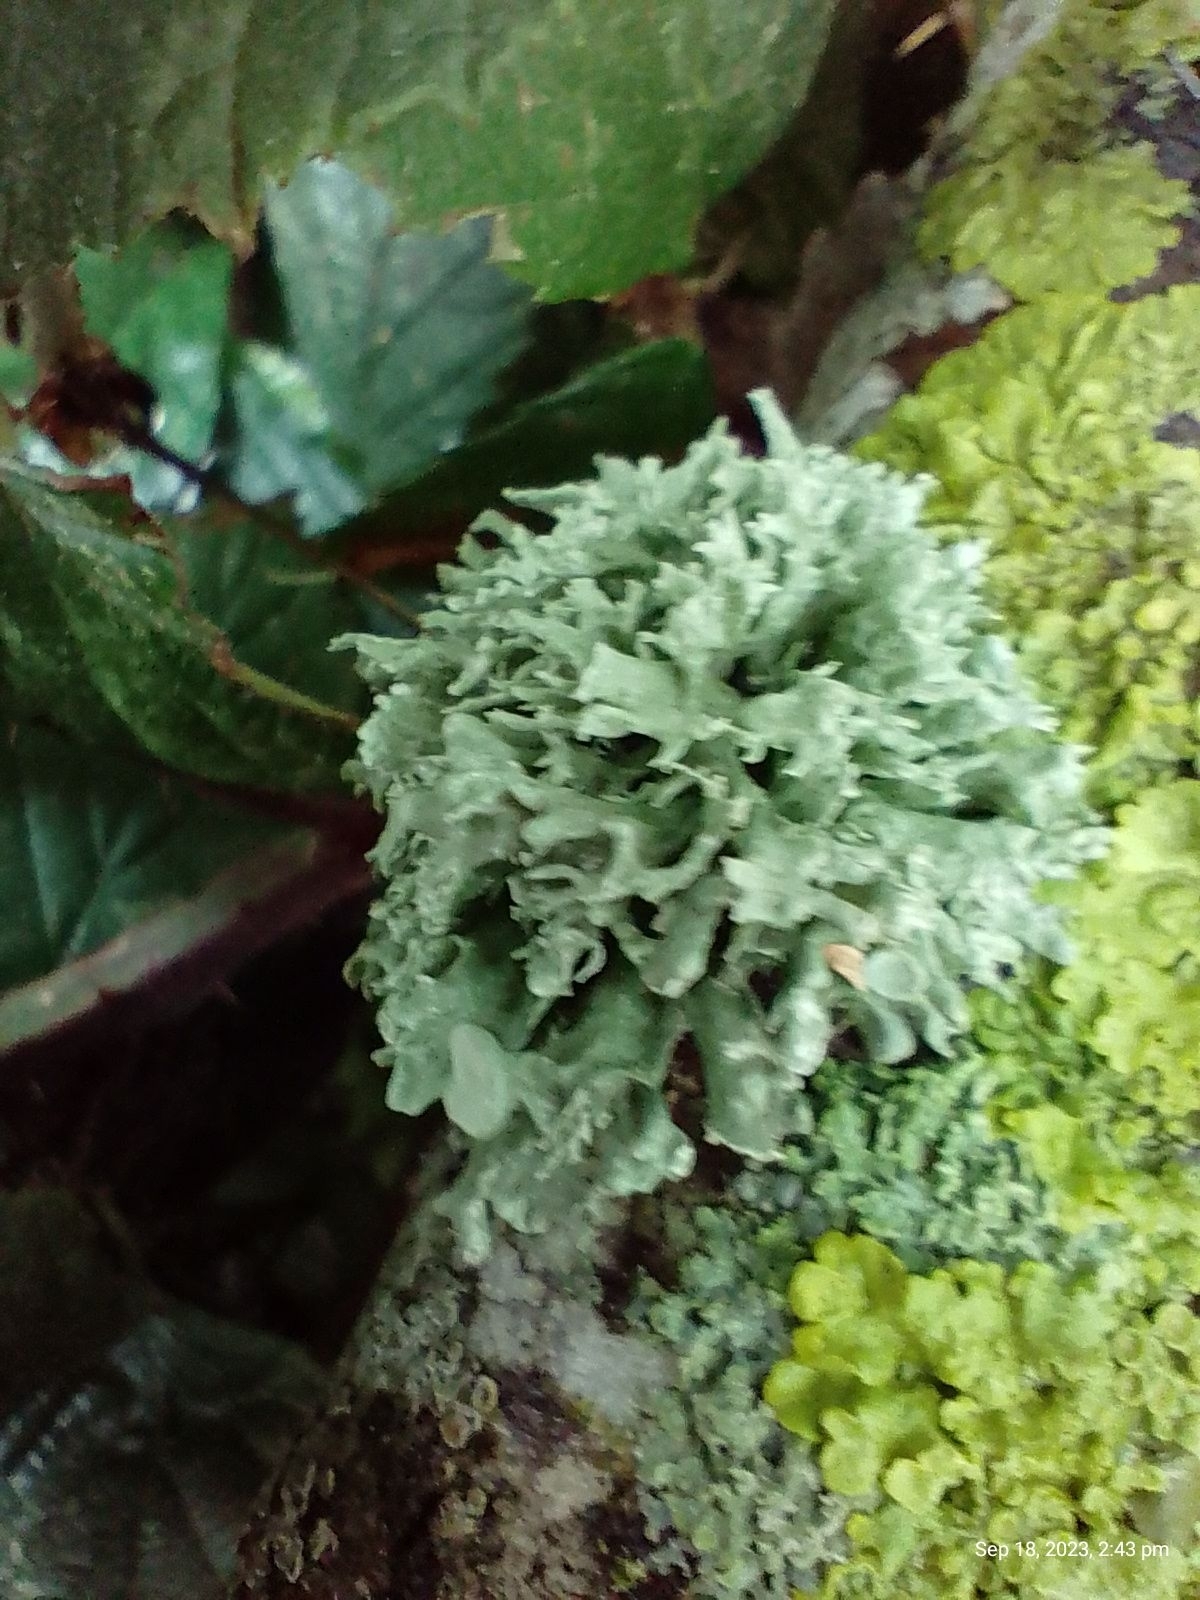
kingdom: Fungi
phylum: Ascomycota
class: Lecanoromycetes
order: Lecanorales
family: Ramalinaceae
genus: Ramalina
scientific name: Ramalina fastigiata
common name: Dotted ribbon lichen
